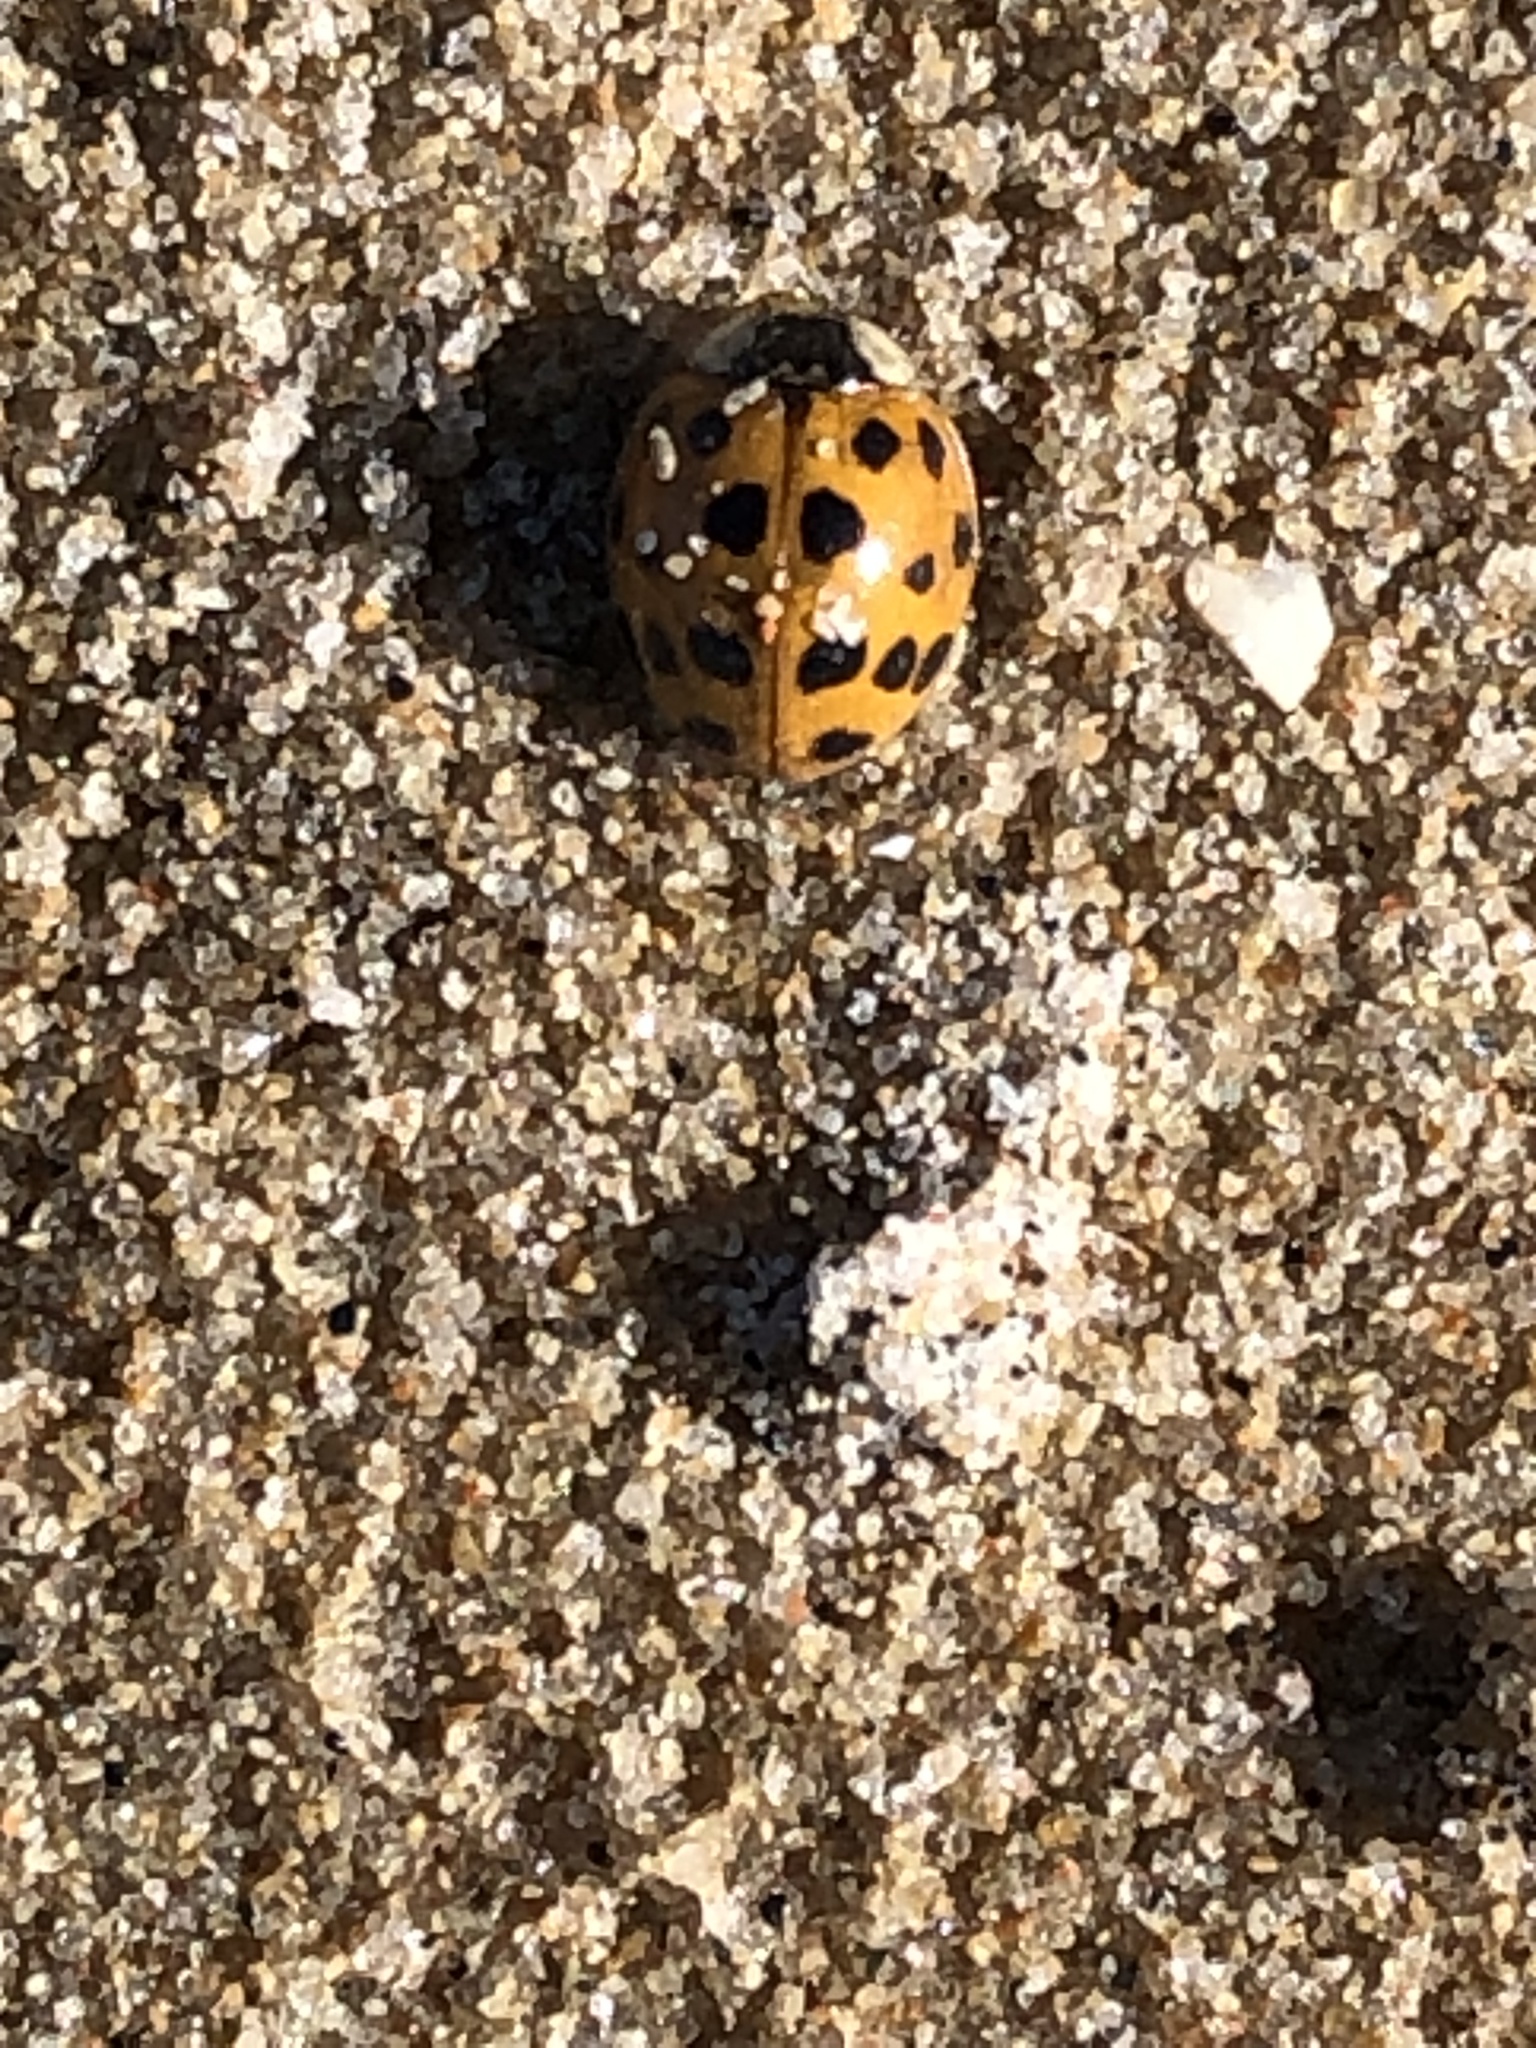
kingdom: Animalia
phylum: Arthropoda
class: Insecta
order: Coleoptera
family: Coccinellidae
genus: Harmonia
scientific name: Harmonia axyridis
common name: Harlequin ladybird
